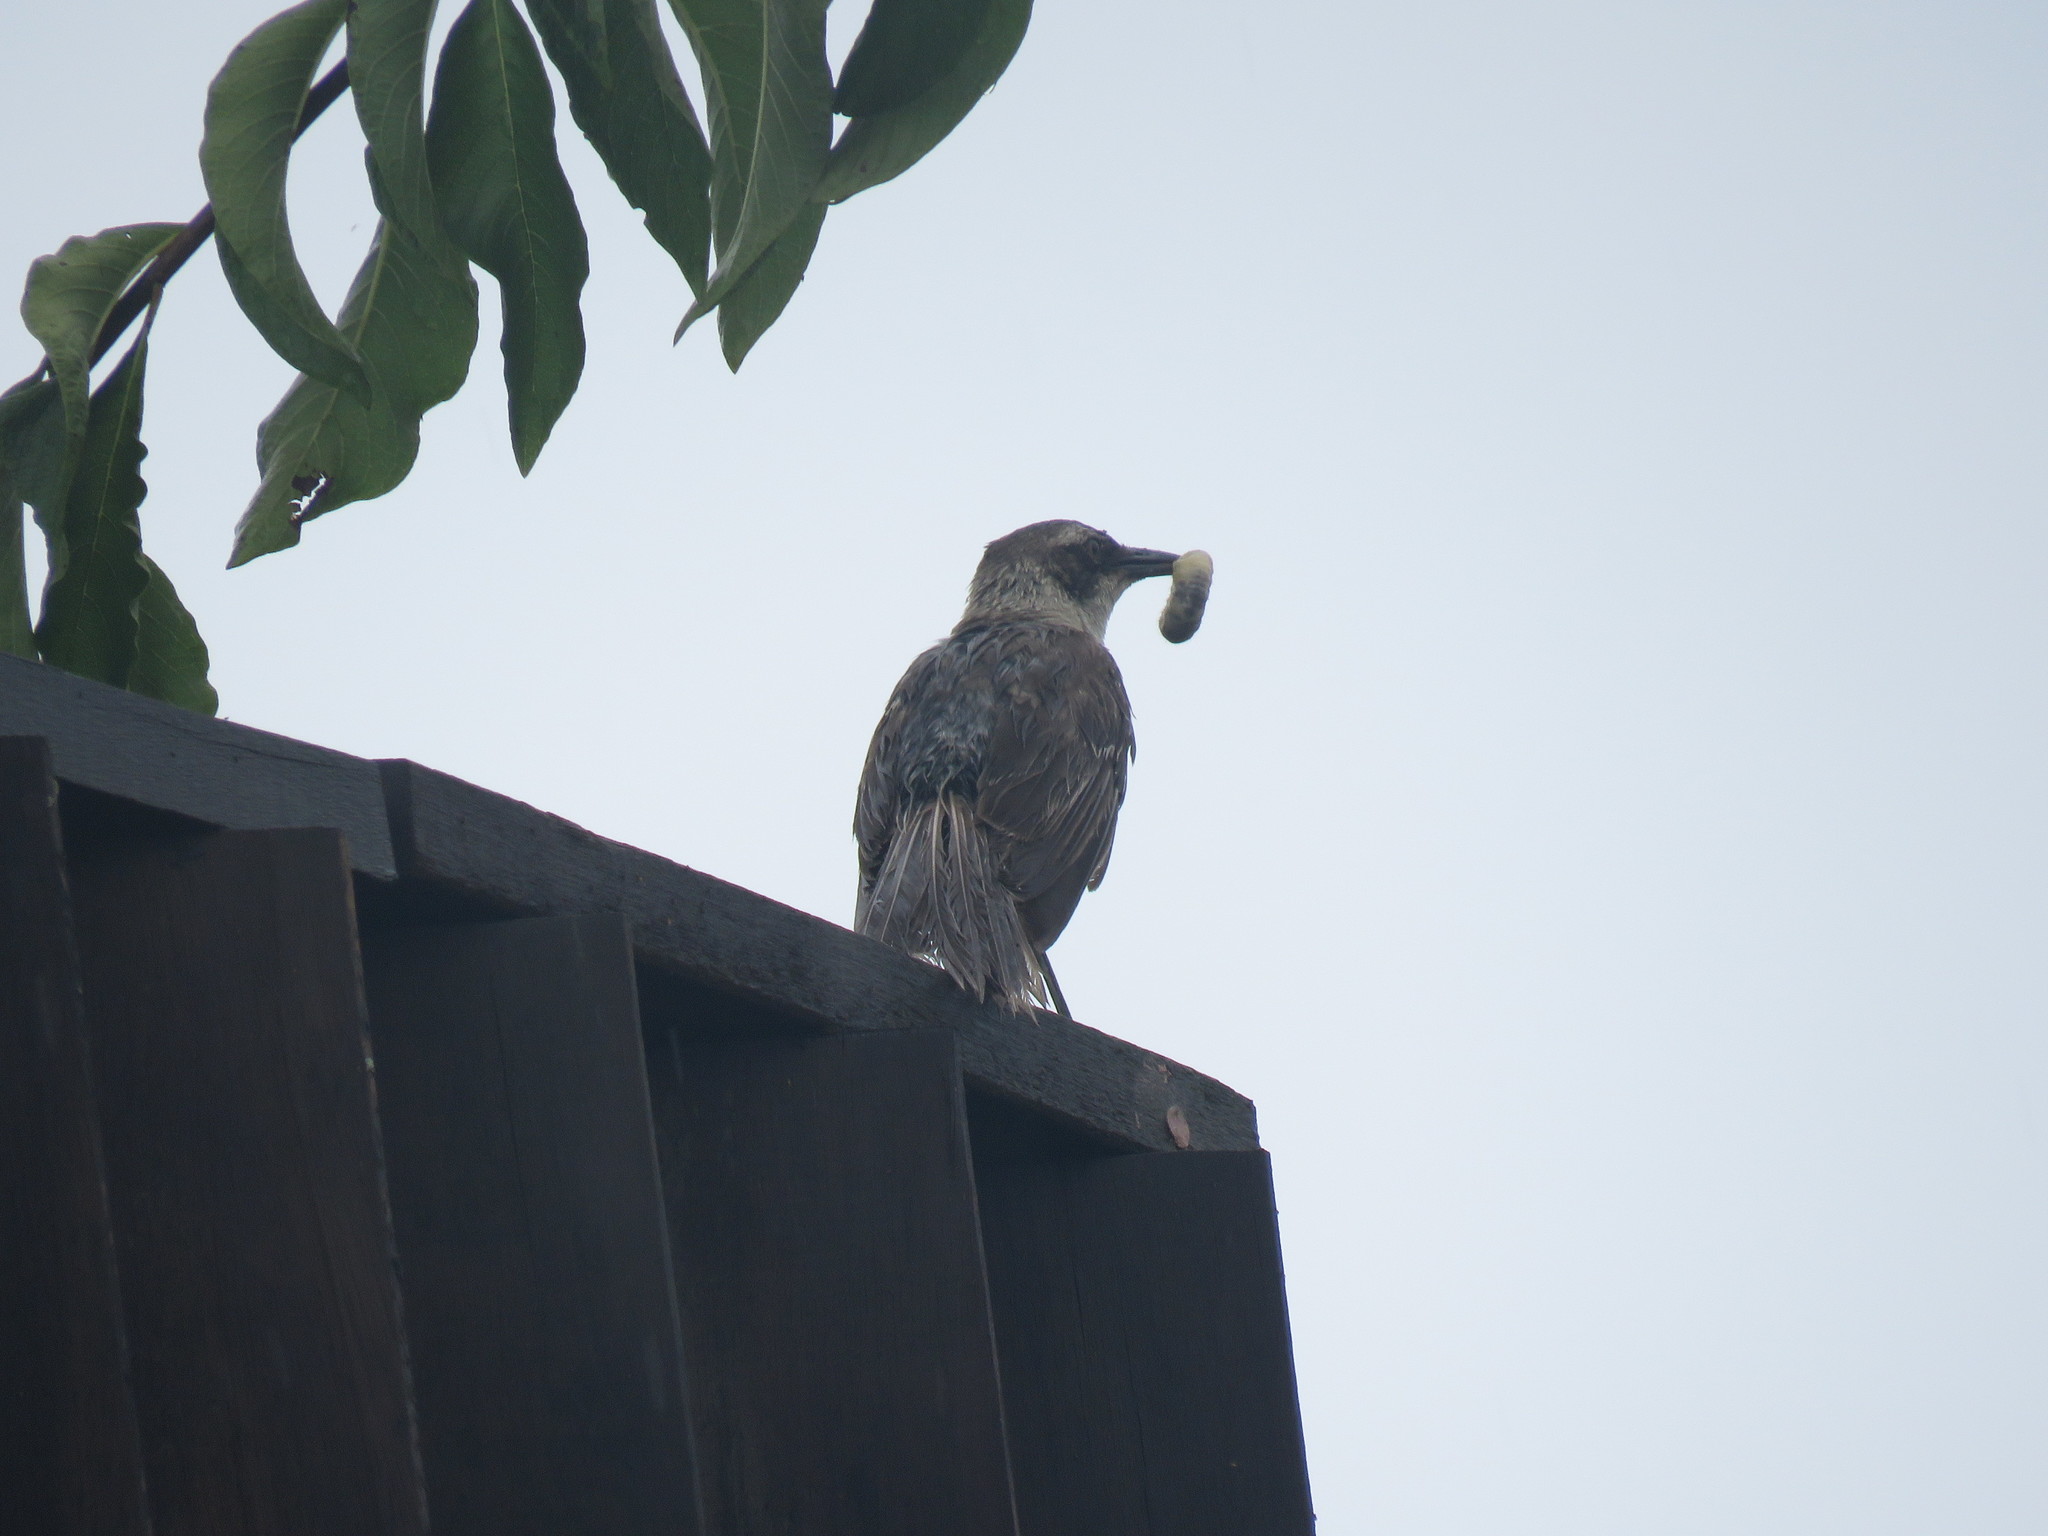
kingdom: Animalia
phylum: Chordata
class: Aves
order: Passeriformes
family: Mimidae
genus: Mimus
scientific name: Mimus parvulus
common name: Galapagos mockingbird
